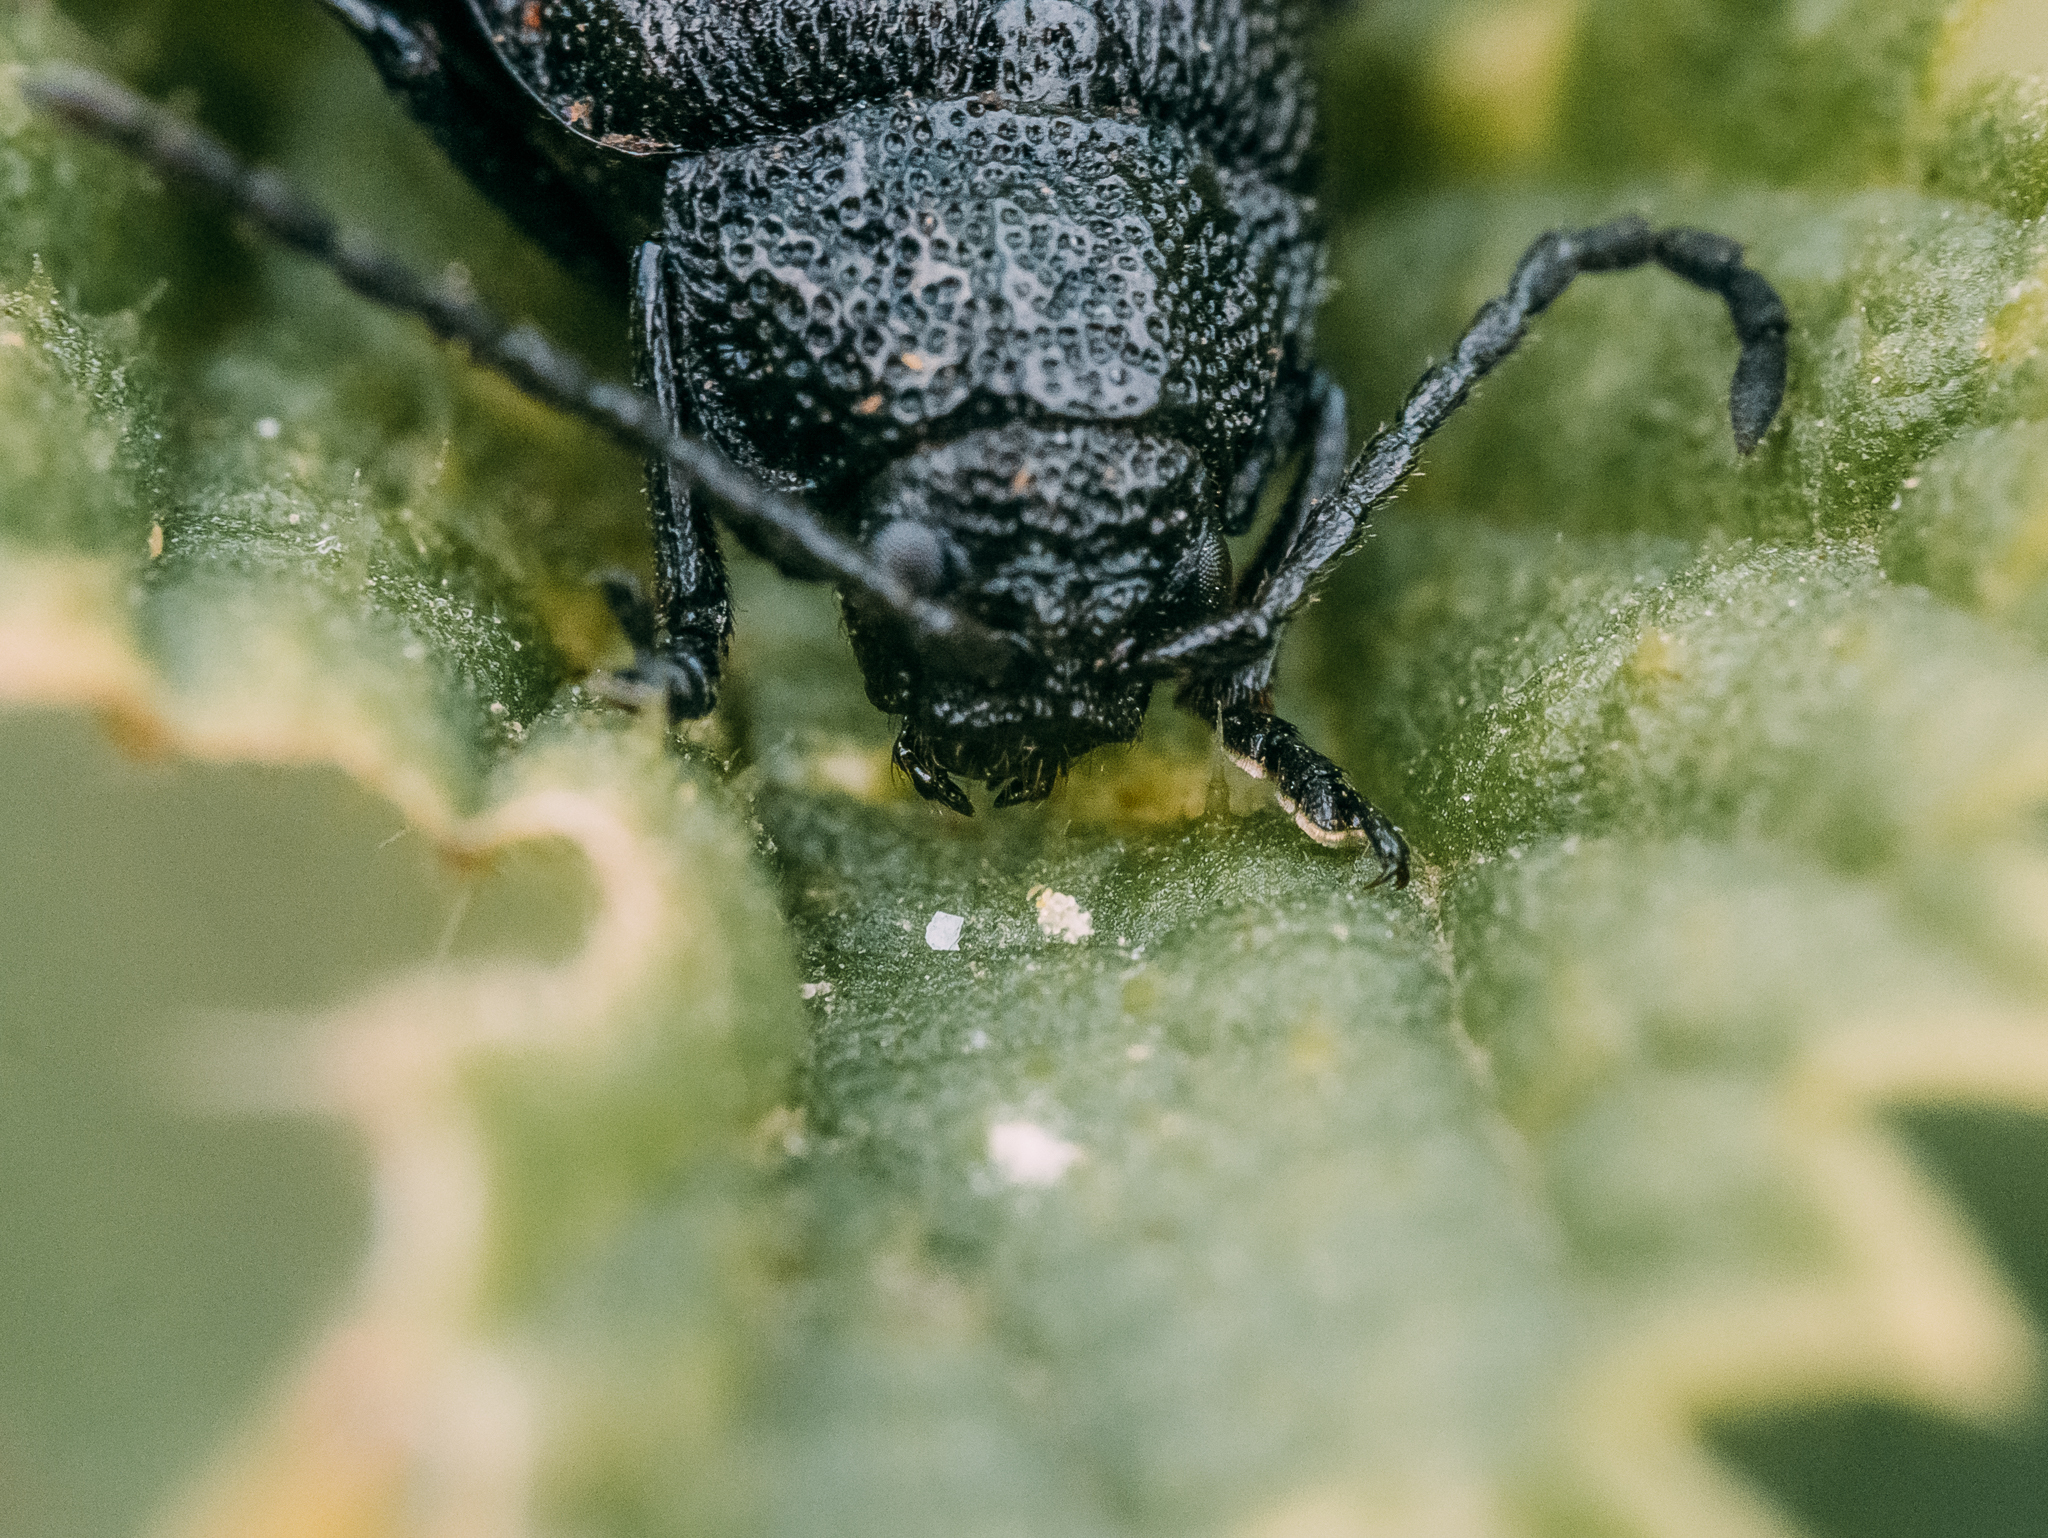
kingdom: Animalia
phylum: Arthropoda
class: Insecta
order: Coleoptera
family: Chrysomelidae
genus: Galeruca
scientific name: Galeruca tanaceti
